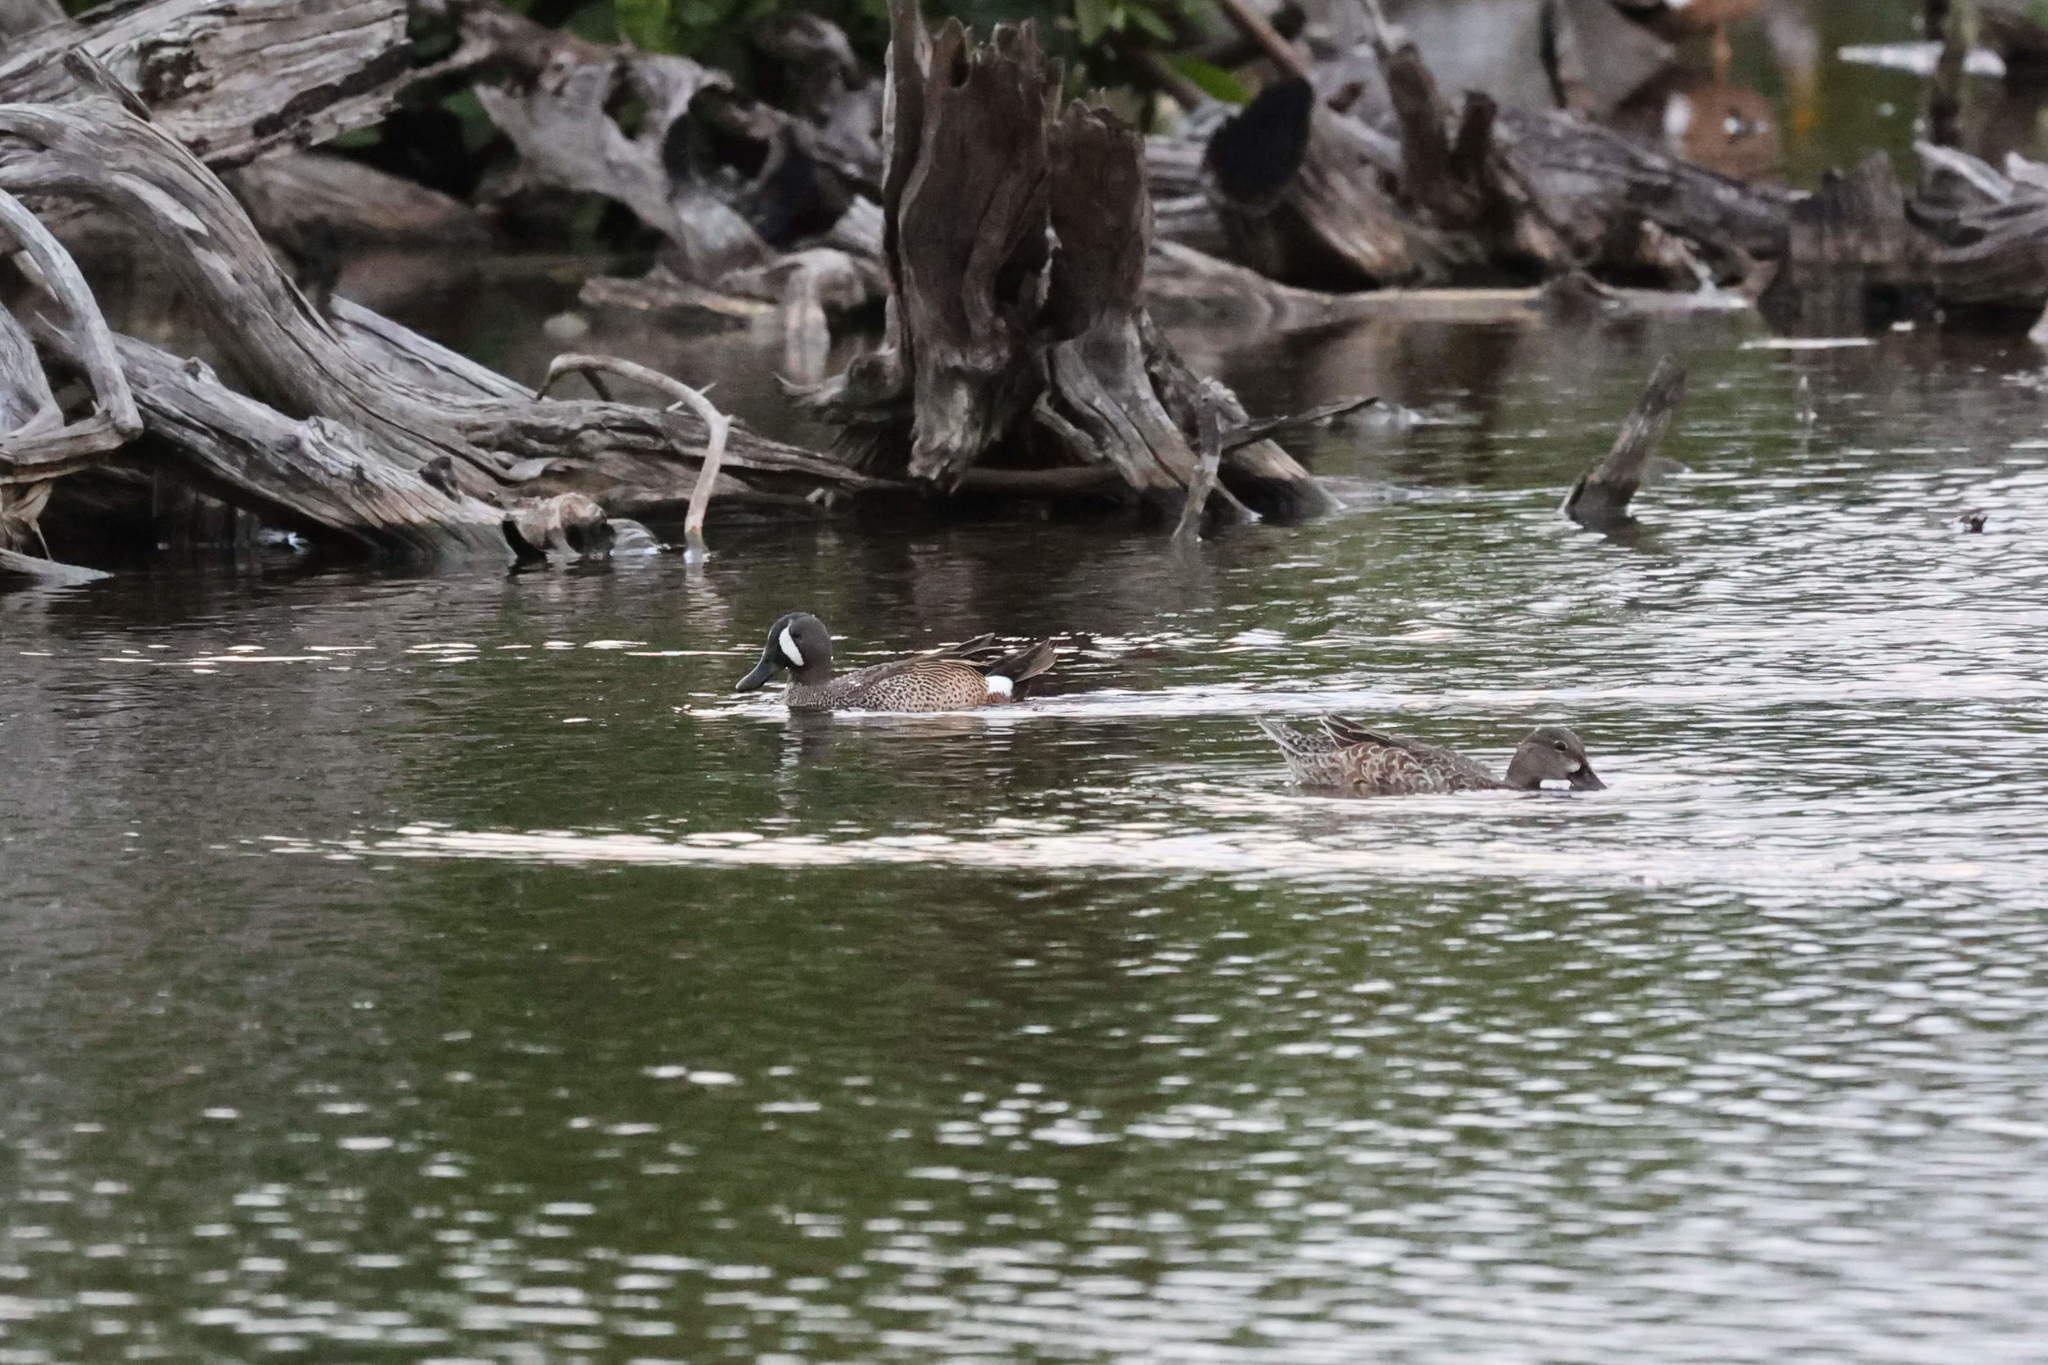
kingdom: Animalia
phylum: Chordata
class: Aves
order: Anseriformes
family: Anatidae
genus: Spatula
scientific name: Spatula discors
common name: Blue-winged teal
